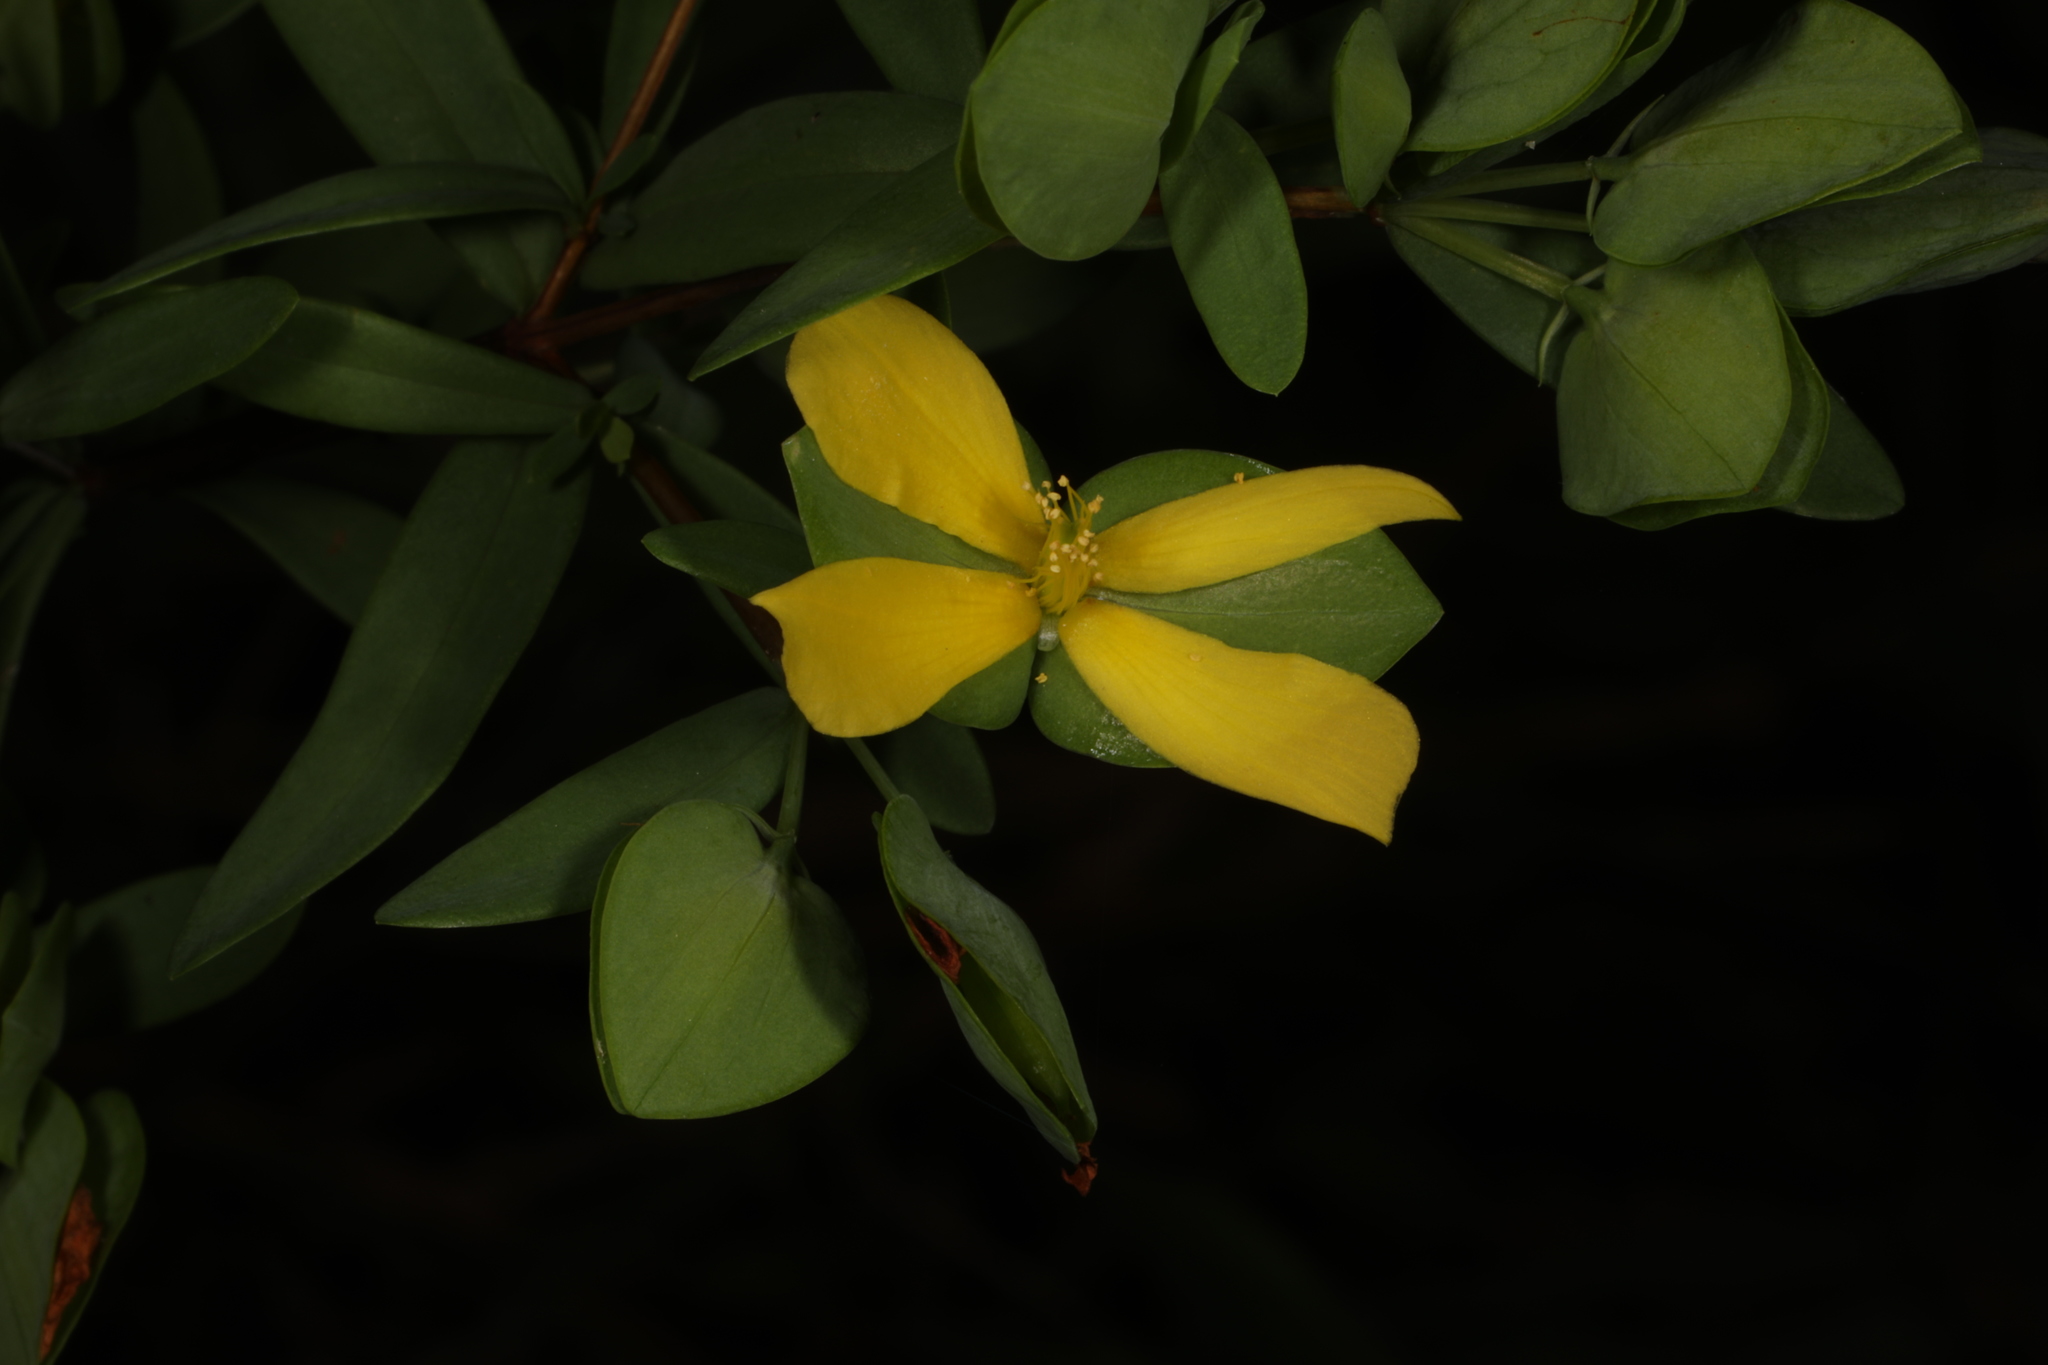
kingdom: Plantae
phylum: Tracheophyta
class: Magnoliopsida
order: Malpighiales
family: Hypericaceae
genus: Hypericum
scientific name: Hypericum hypericoides
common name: St. andrew's cross
